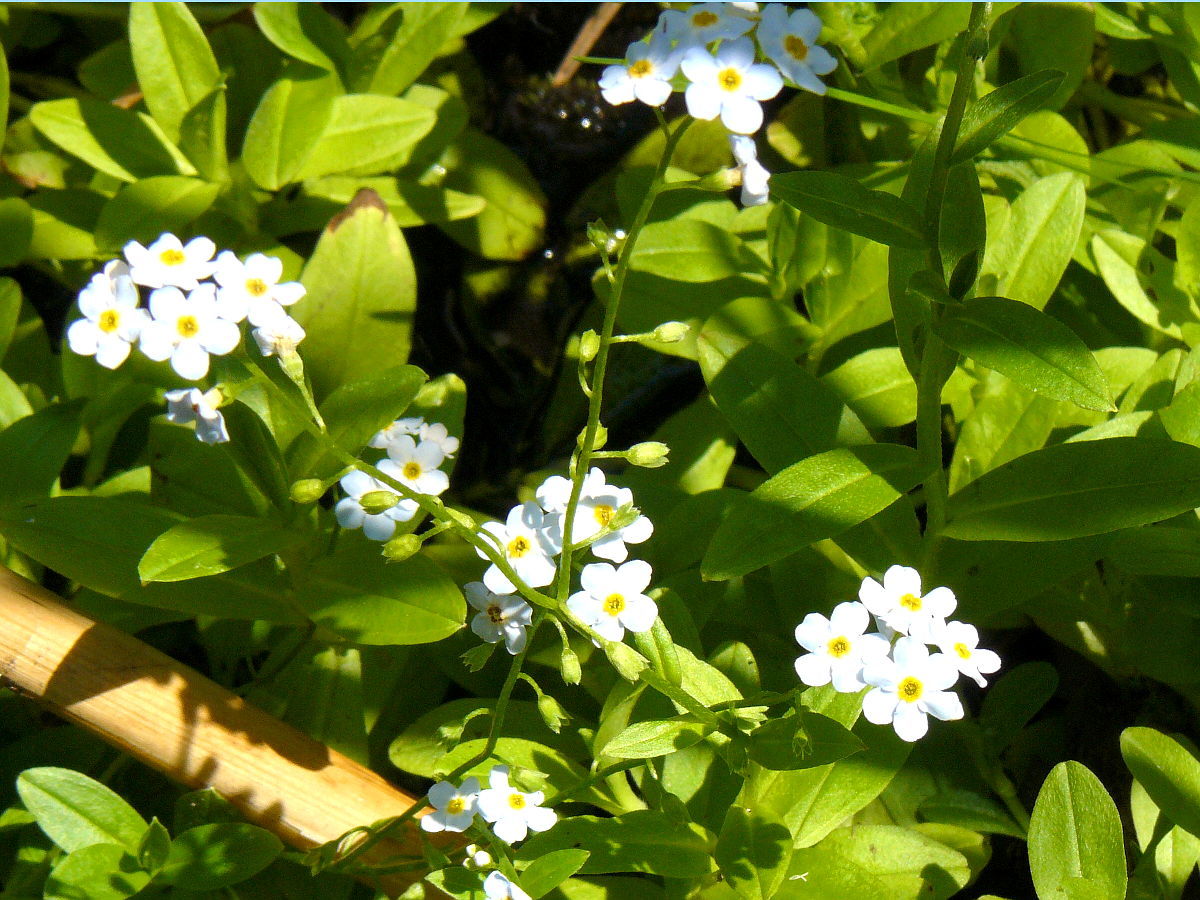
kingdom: Plantae
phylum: Tracheophyta
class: Magnoliopsida
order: Boraginales
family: Boraginaceae
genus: Myosotis
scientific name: Myosotis scorpioides
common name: Water forget-me-not
